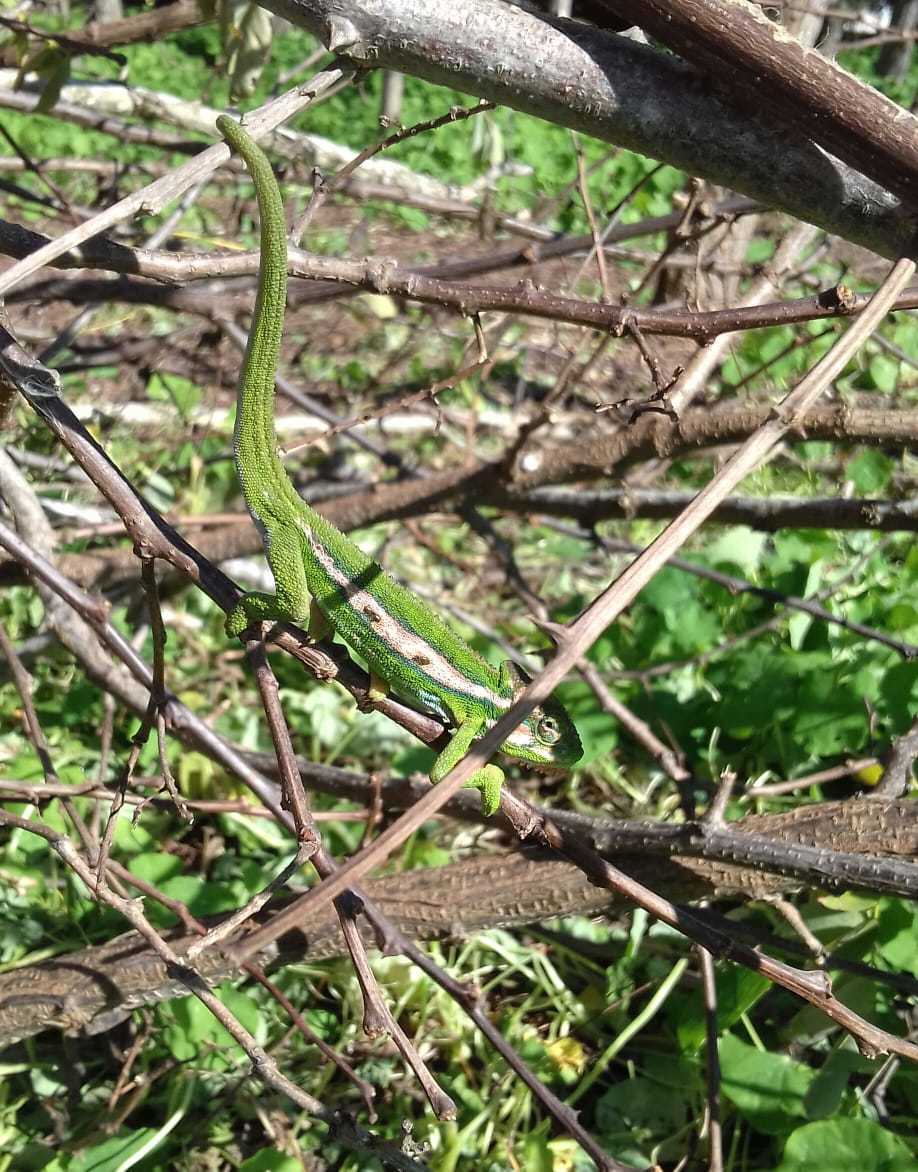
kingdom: Animalia
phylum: Chordata
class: Squamata
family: Chamaeleonidae
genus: Bradypodion
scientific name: Bradypodion pumilum
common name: Cape dwarf chameleon
